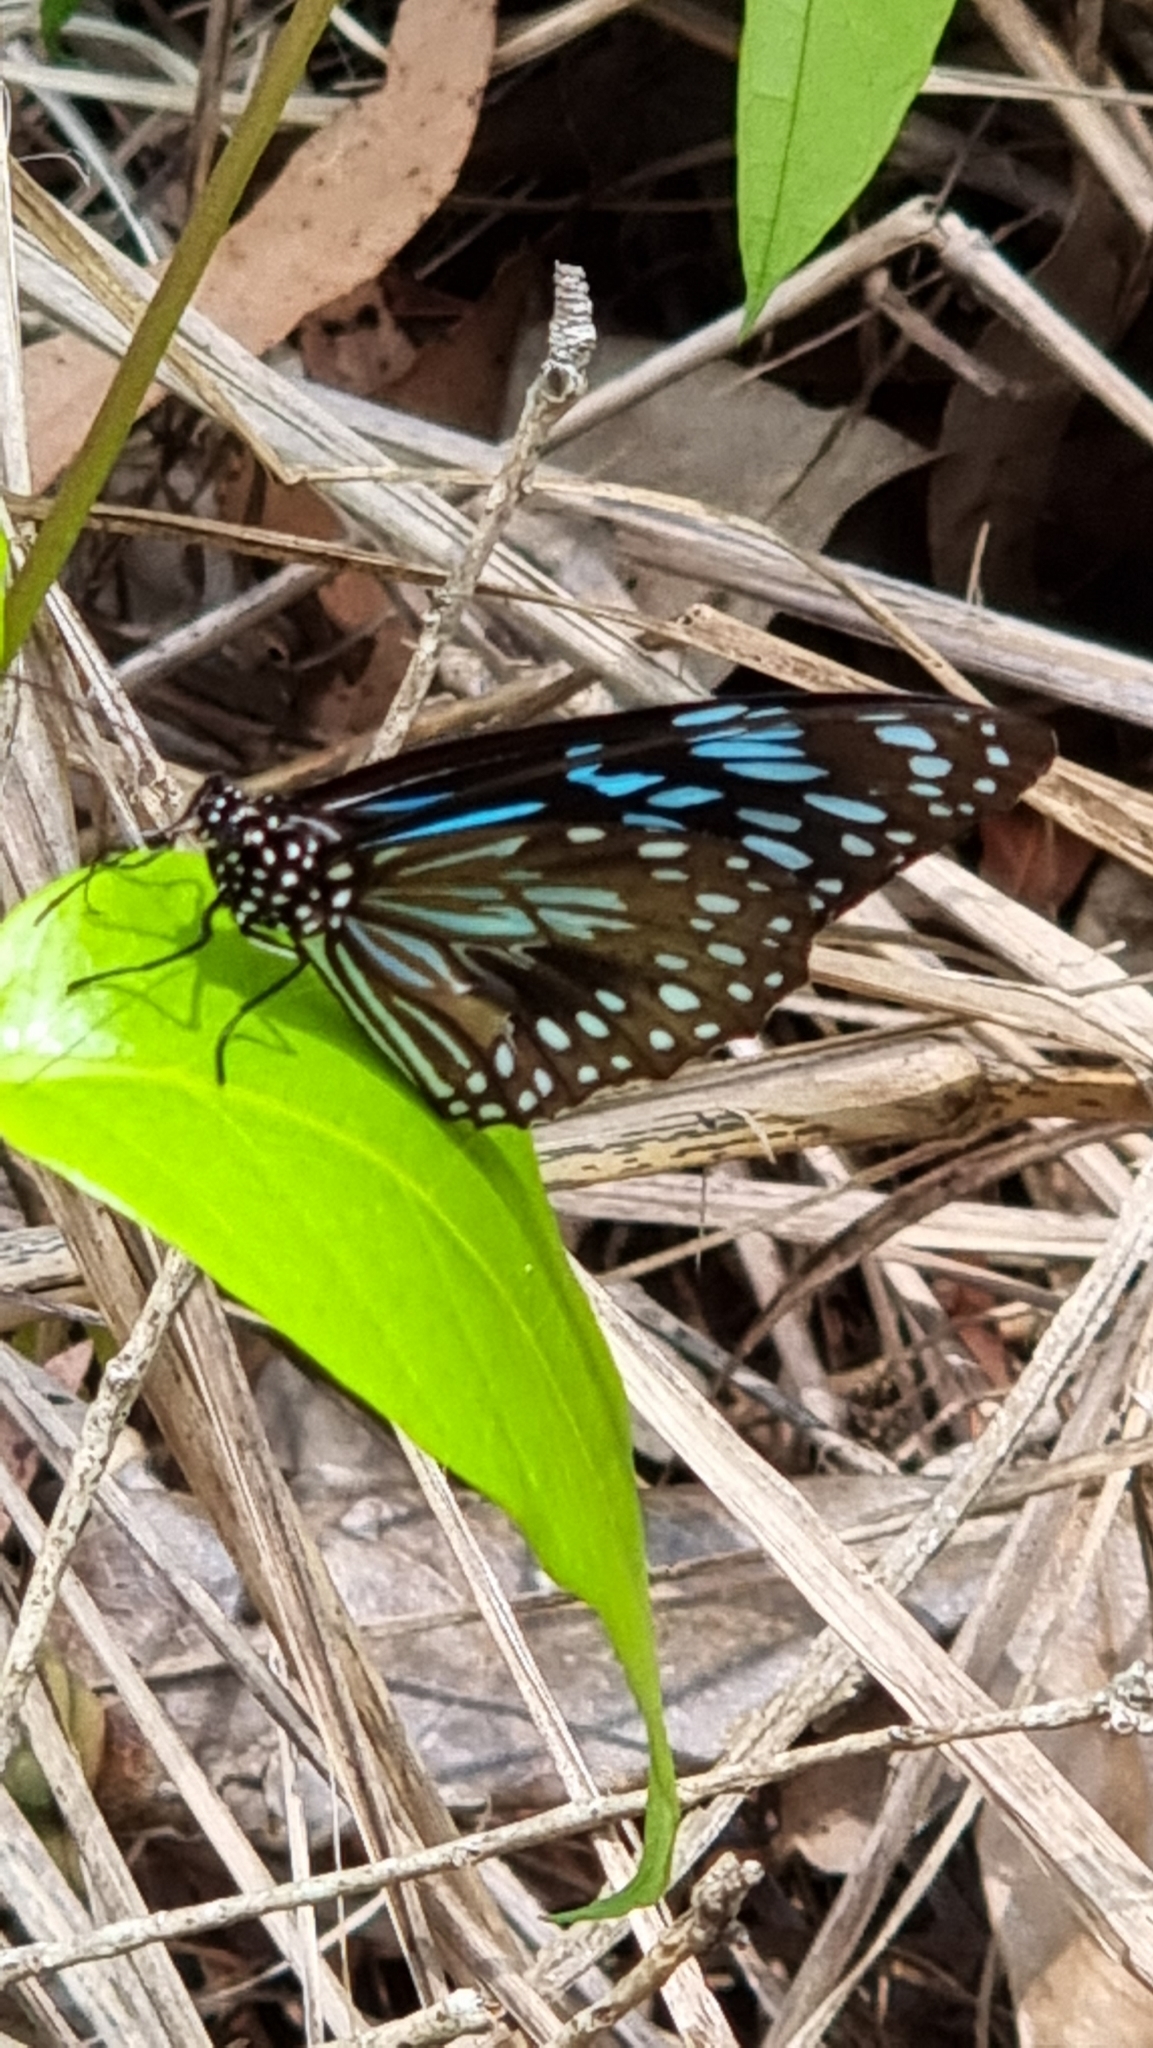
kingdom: Animalia
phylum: Arthropoda
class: Insecta
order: Lepidoptera
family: Nymphalidae
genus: Tirumala
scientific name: Tirumala hamata
